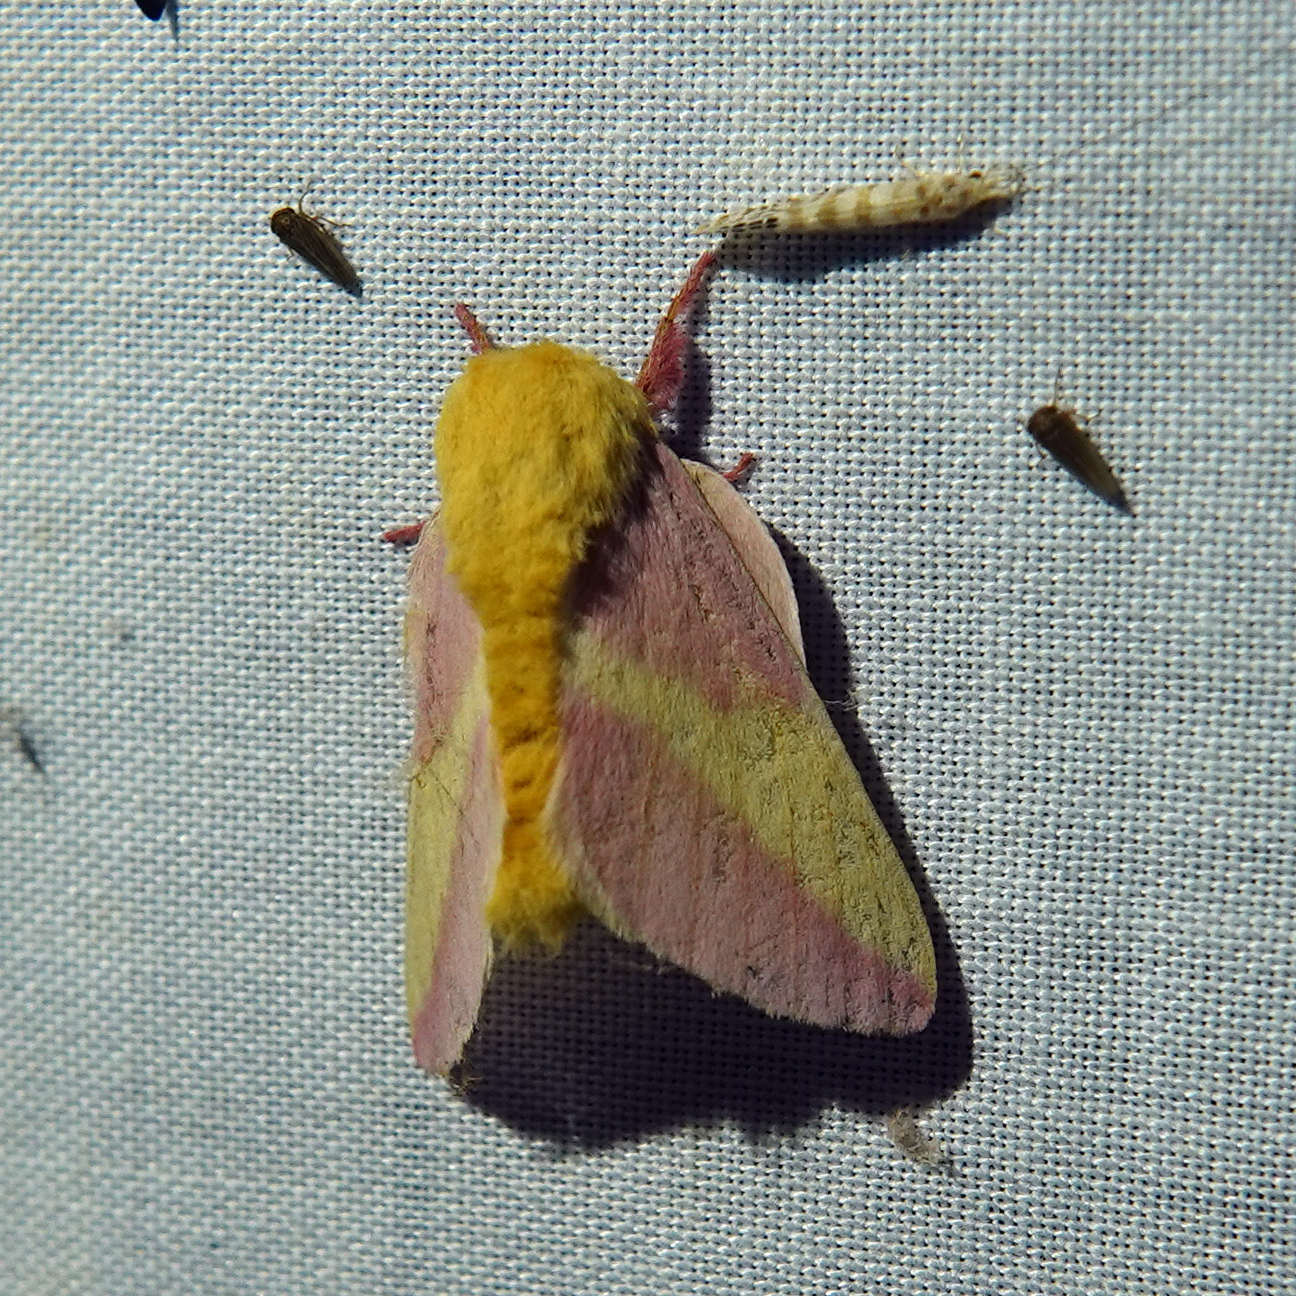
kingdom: Animalia
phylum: Arthropoda
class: Insecta
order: Lepidoptera
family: Saturniidae
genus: Dryocampa
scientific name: Dryocampa rubicunda
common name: Rosy maple moth
